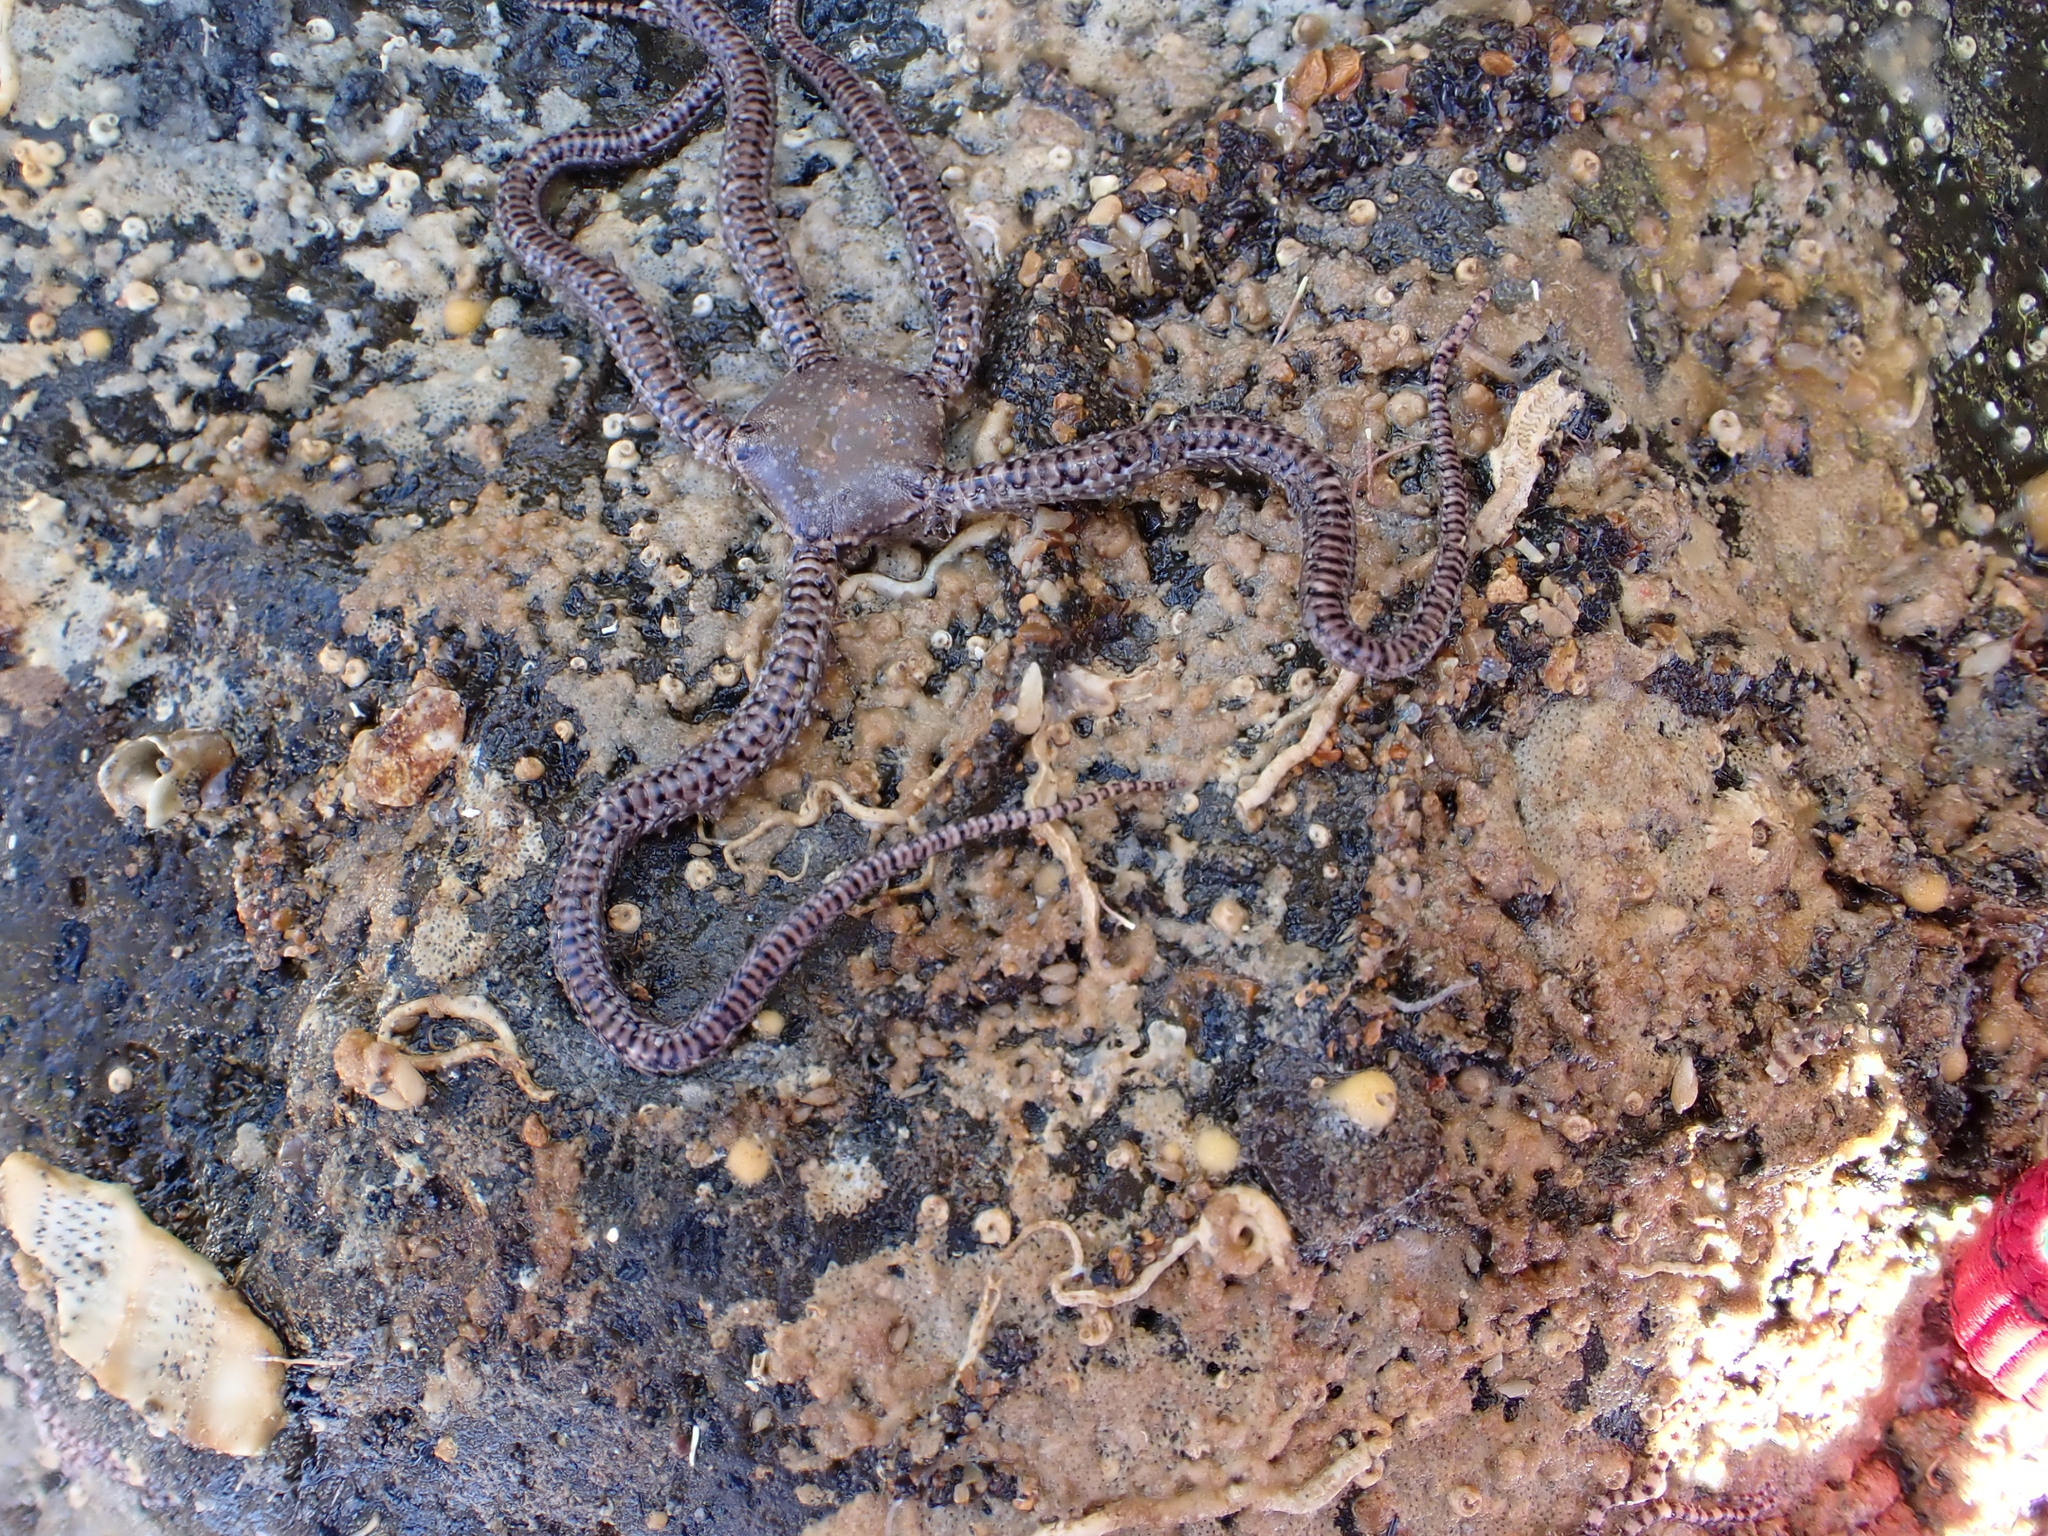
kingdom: Animalia
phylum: Echinodermata
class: Ophiuroidea
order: Amphilepidida
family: Ophionereididae
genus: Ophionereis
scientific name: Ophionereis fasciata
